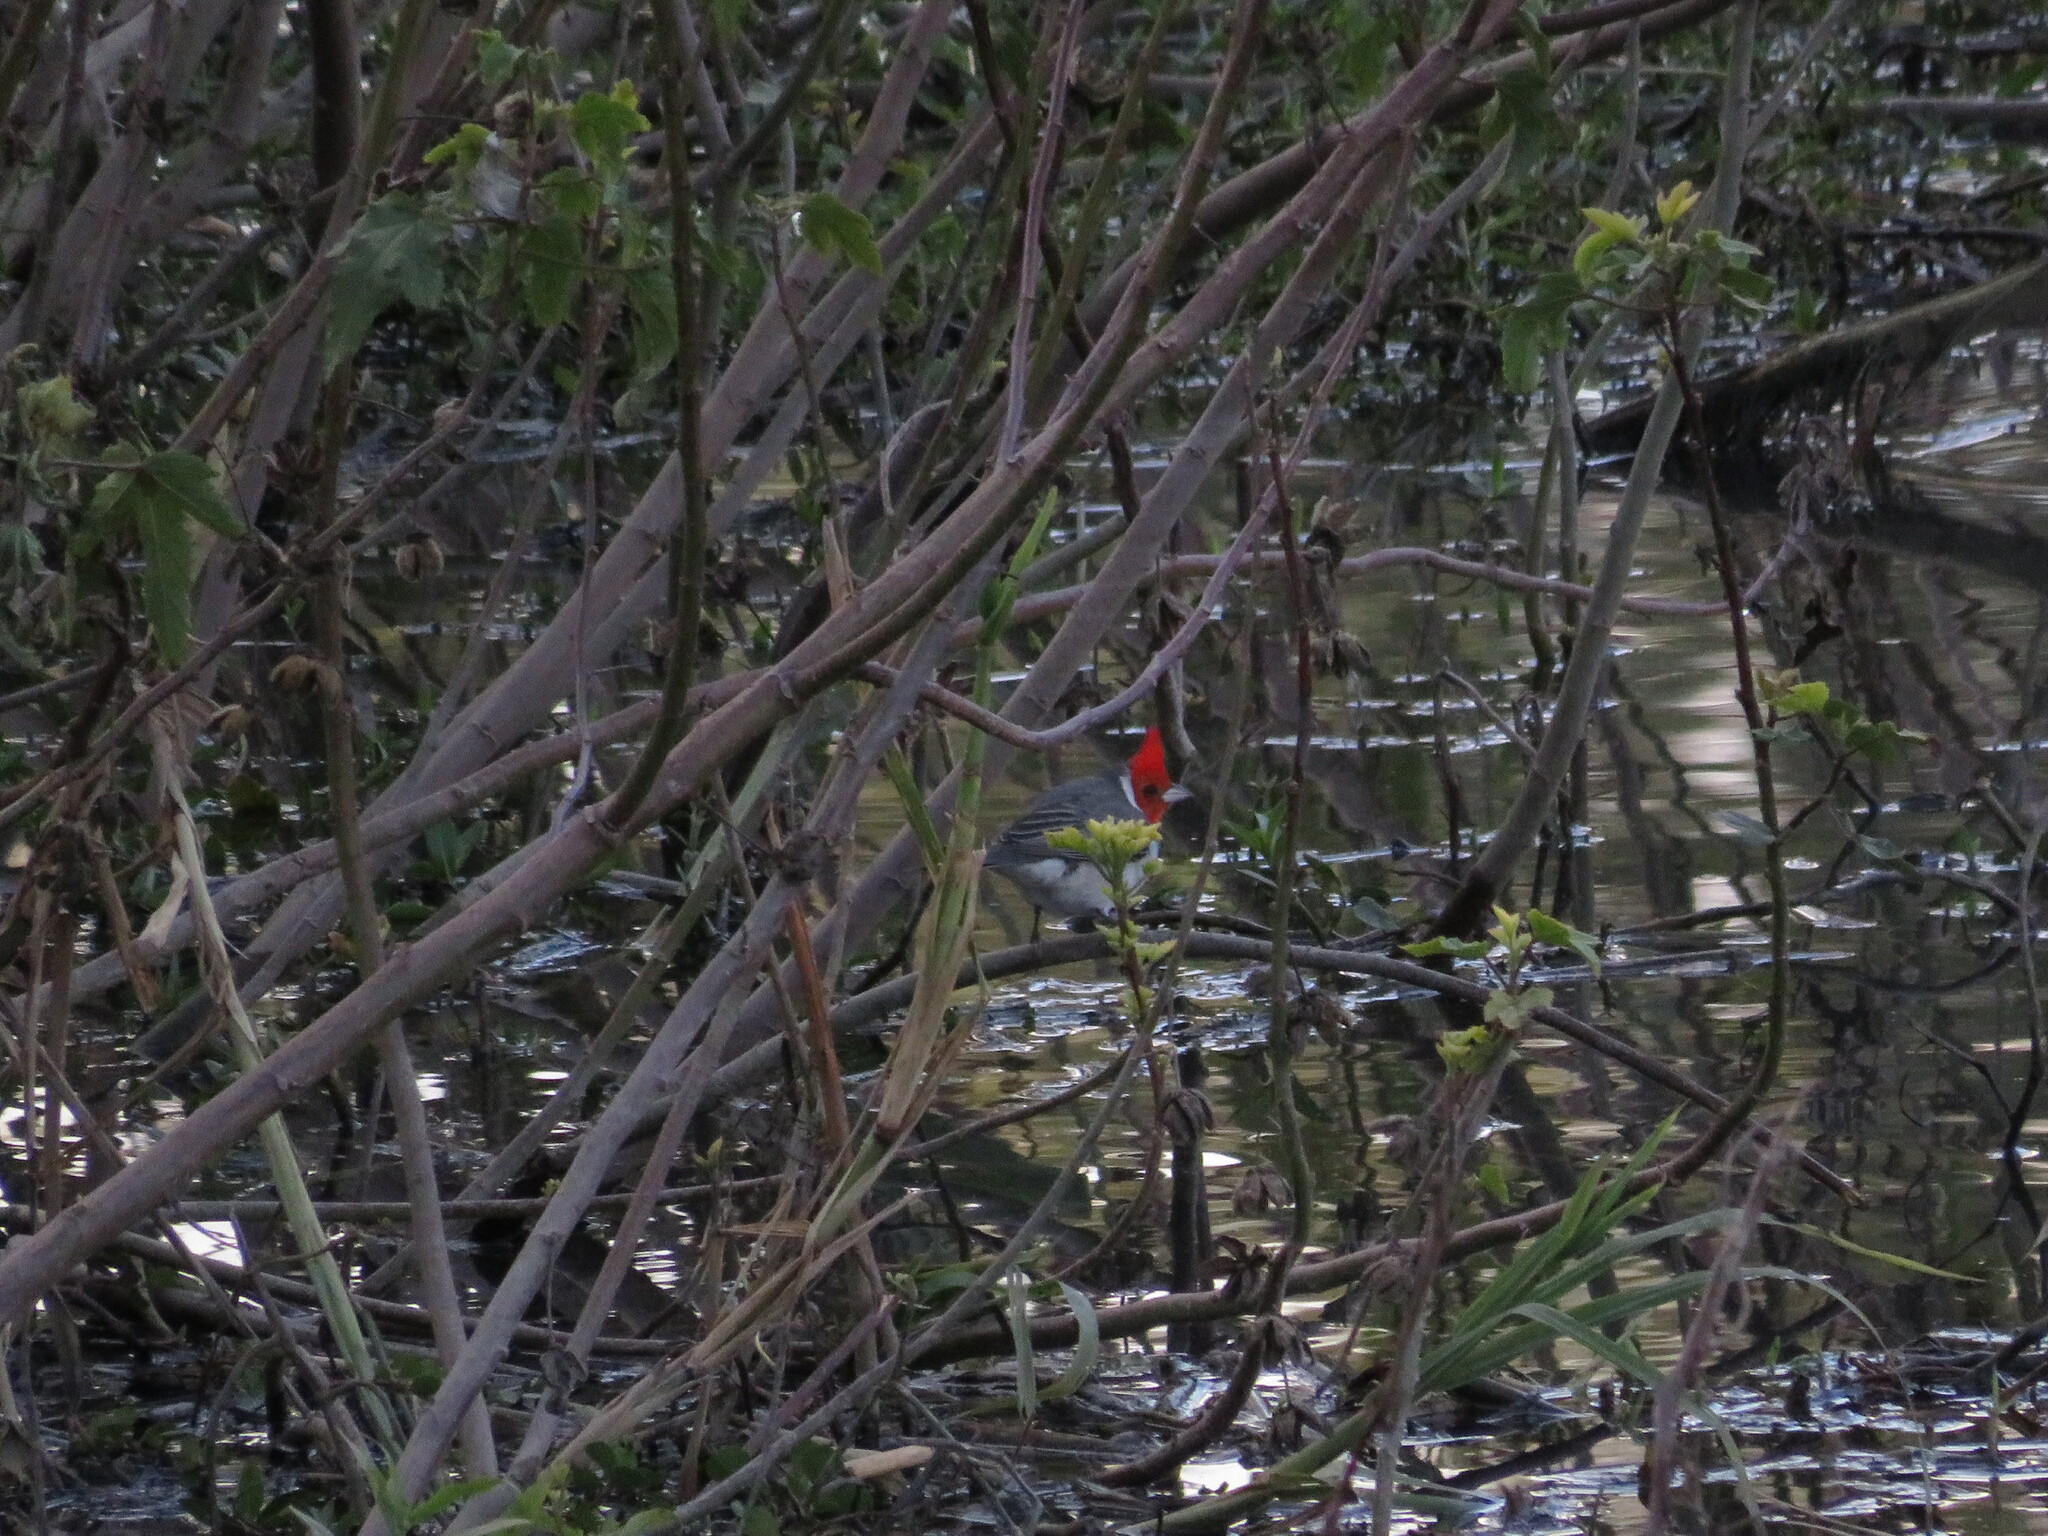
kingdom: Animalia
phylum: Chordata
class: Aves
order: Passeriformes
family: Thraupidae
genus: Paroaria
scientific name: Paroaria coronata
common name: Red-crested cardinal
